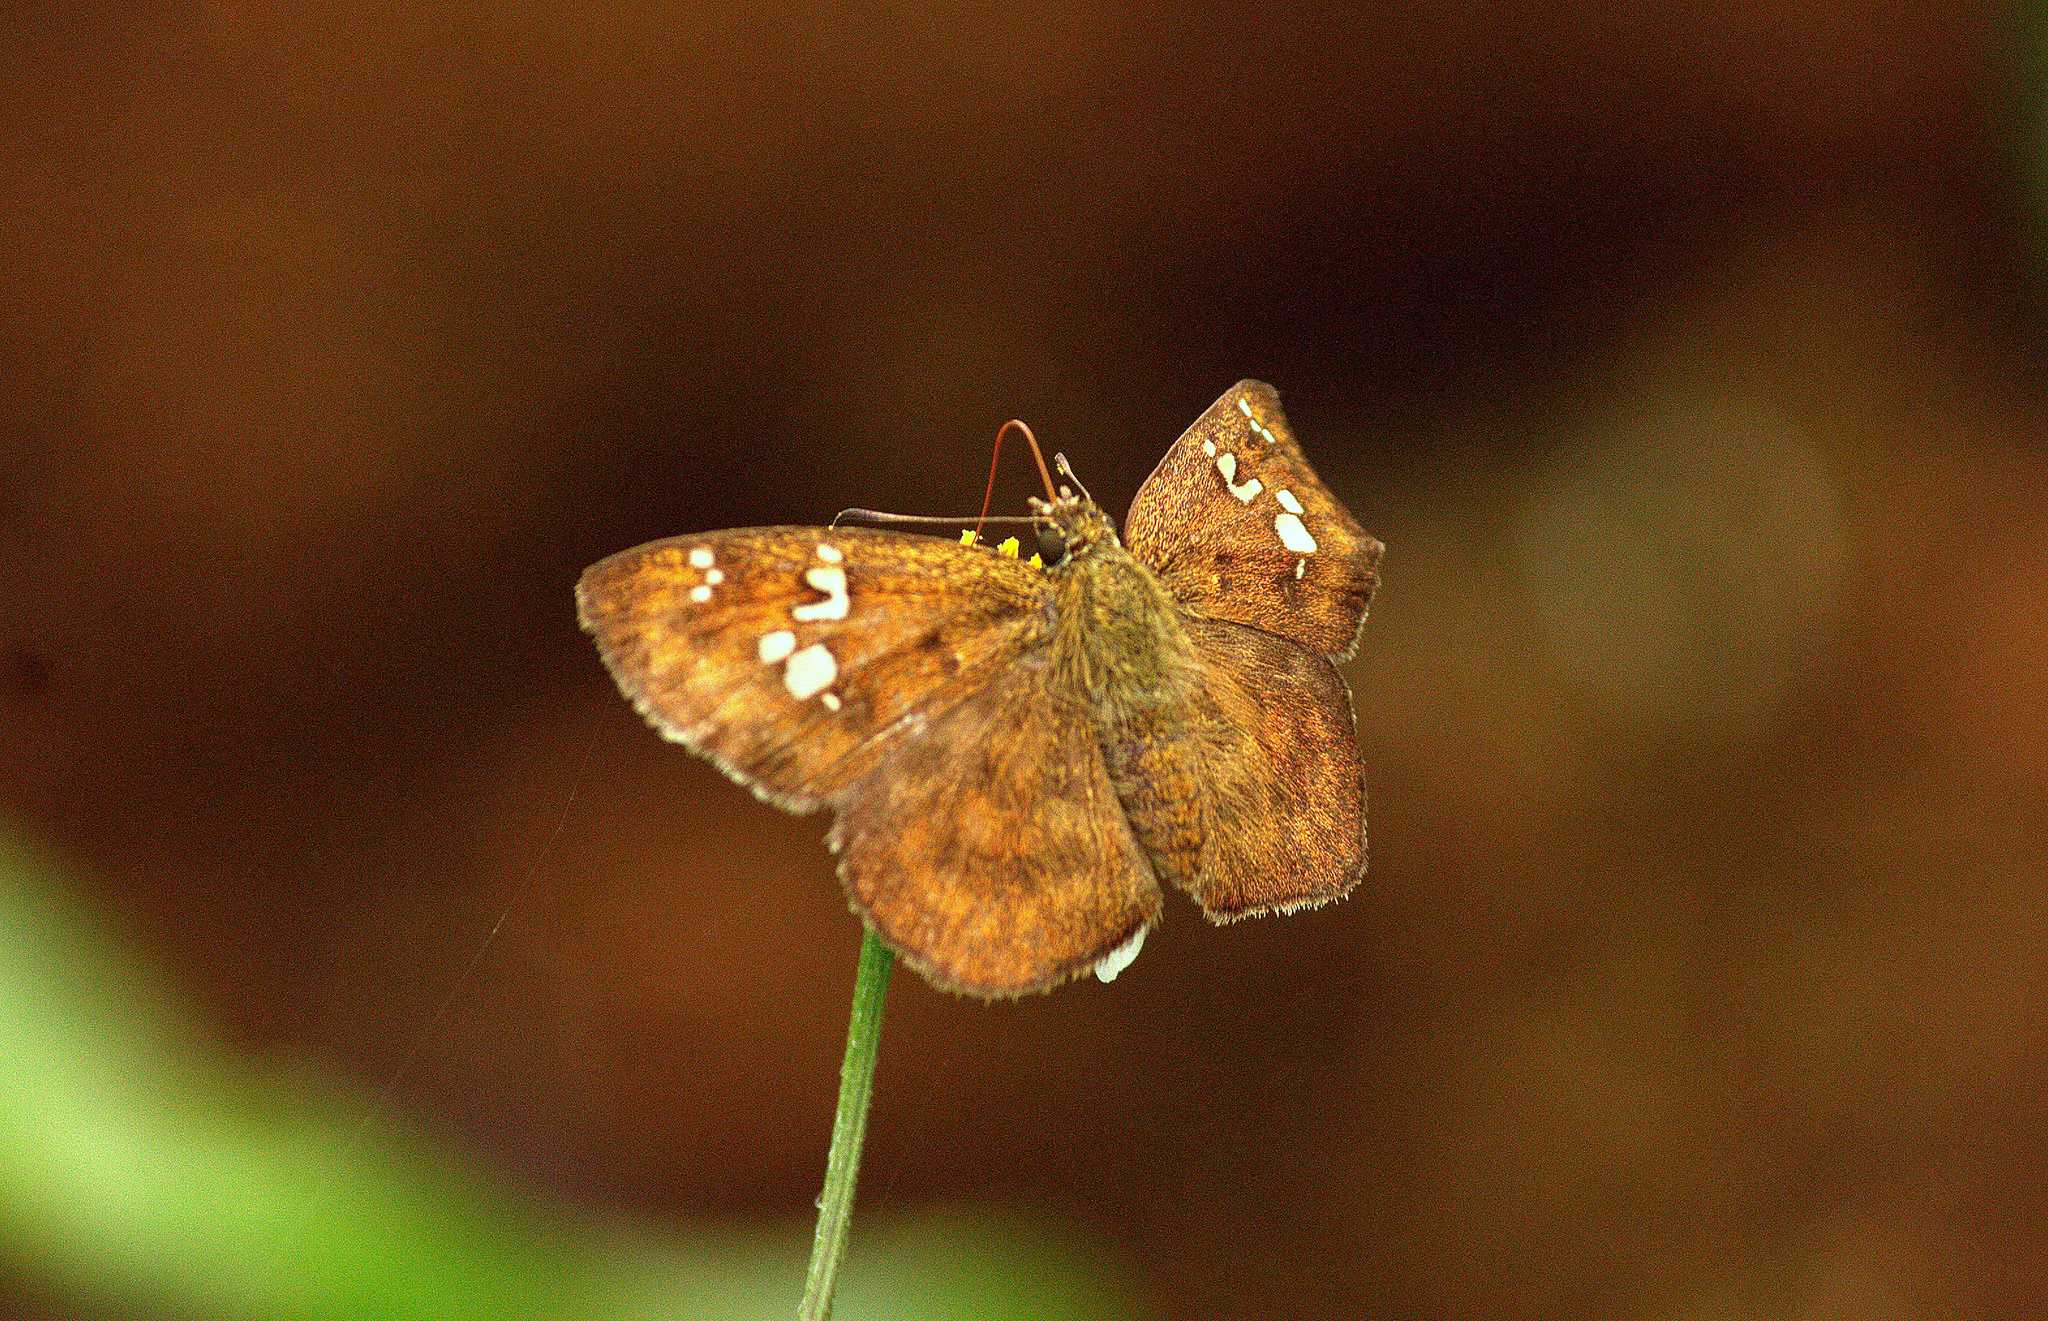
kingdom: Animalia
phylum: Arthropoda
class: Insecta
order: Lepidoptera
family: Hesperiidae
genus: Pseudocoladenia
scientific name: Pseudocoladenia dan
